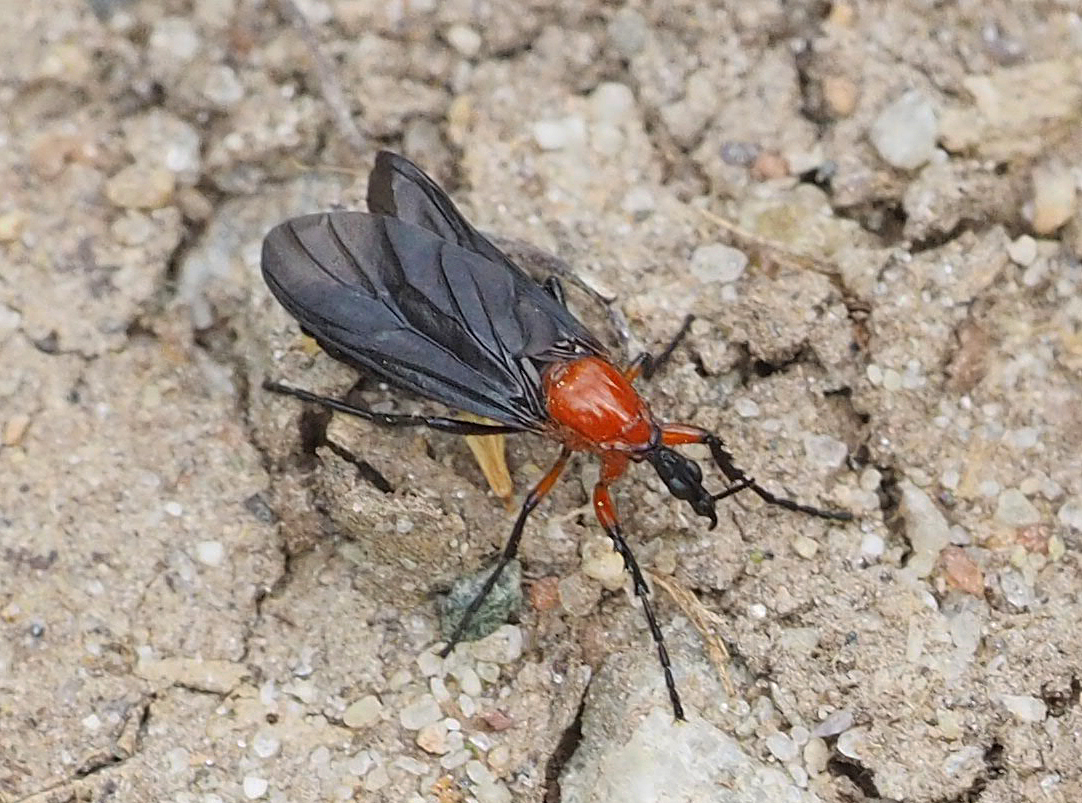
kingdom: Animalia
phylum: Arthropoda
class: Insecta
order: Diptera
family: Bibionidae
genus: Dilophus
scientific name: Dilophus spinipes
